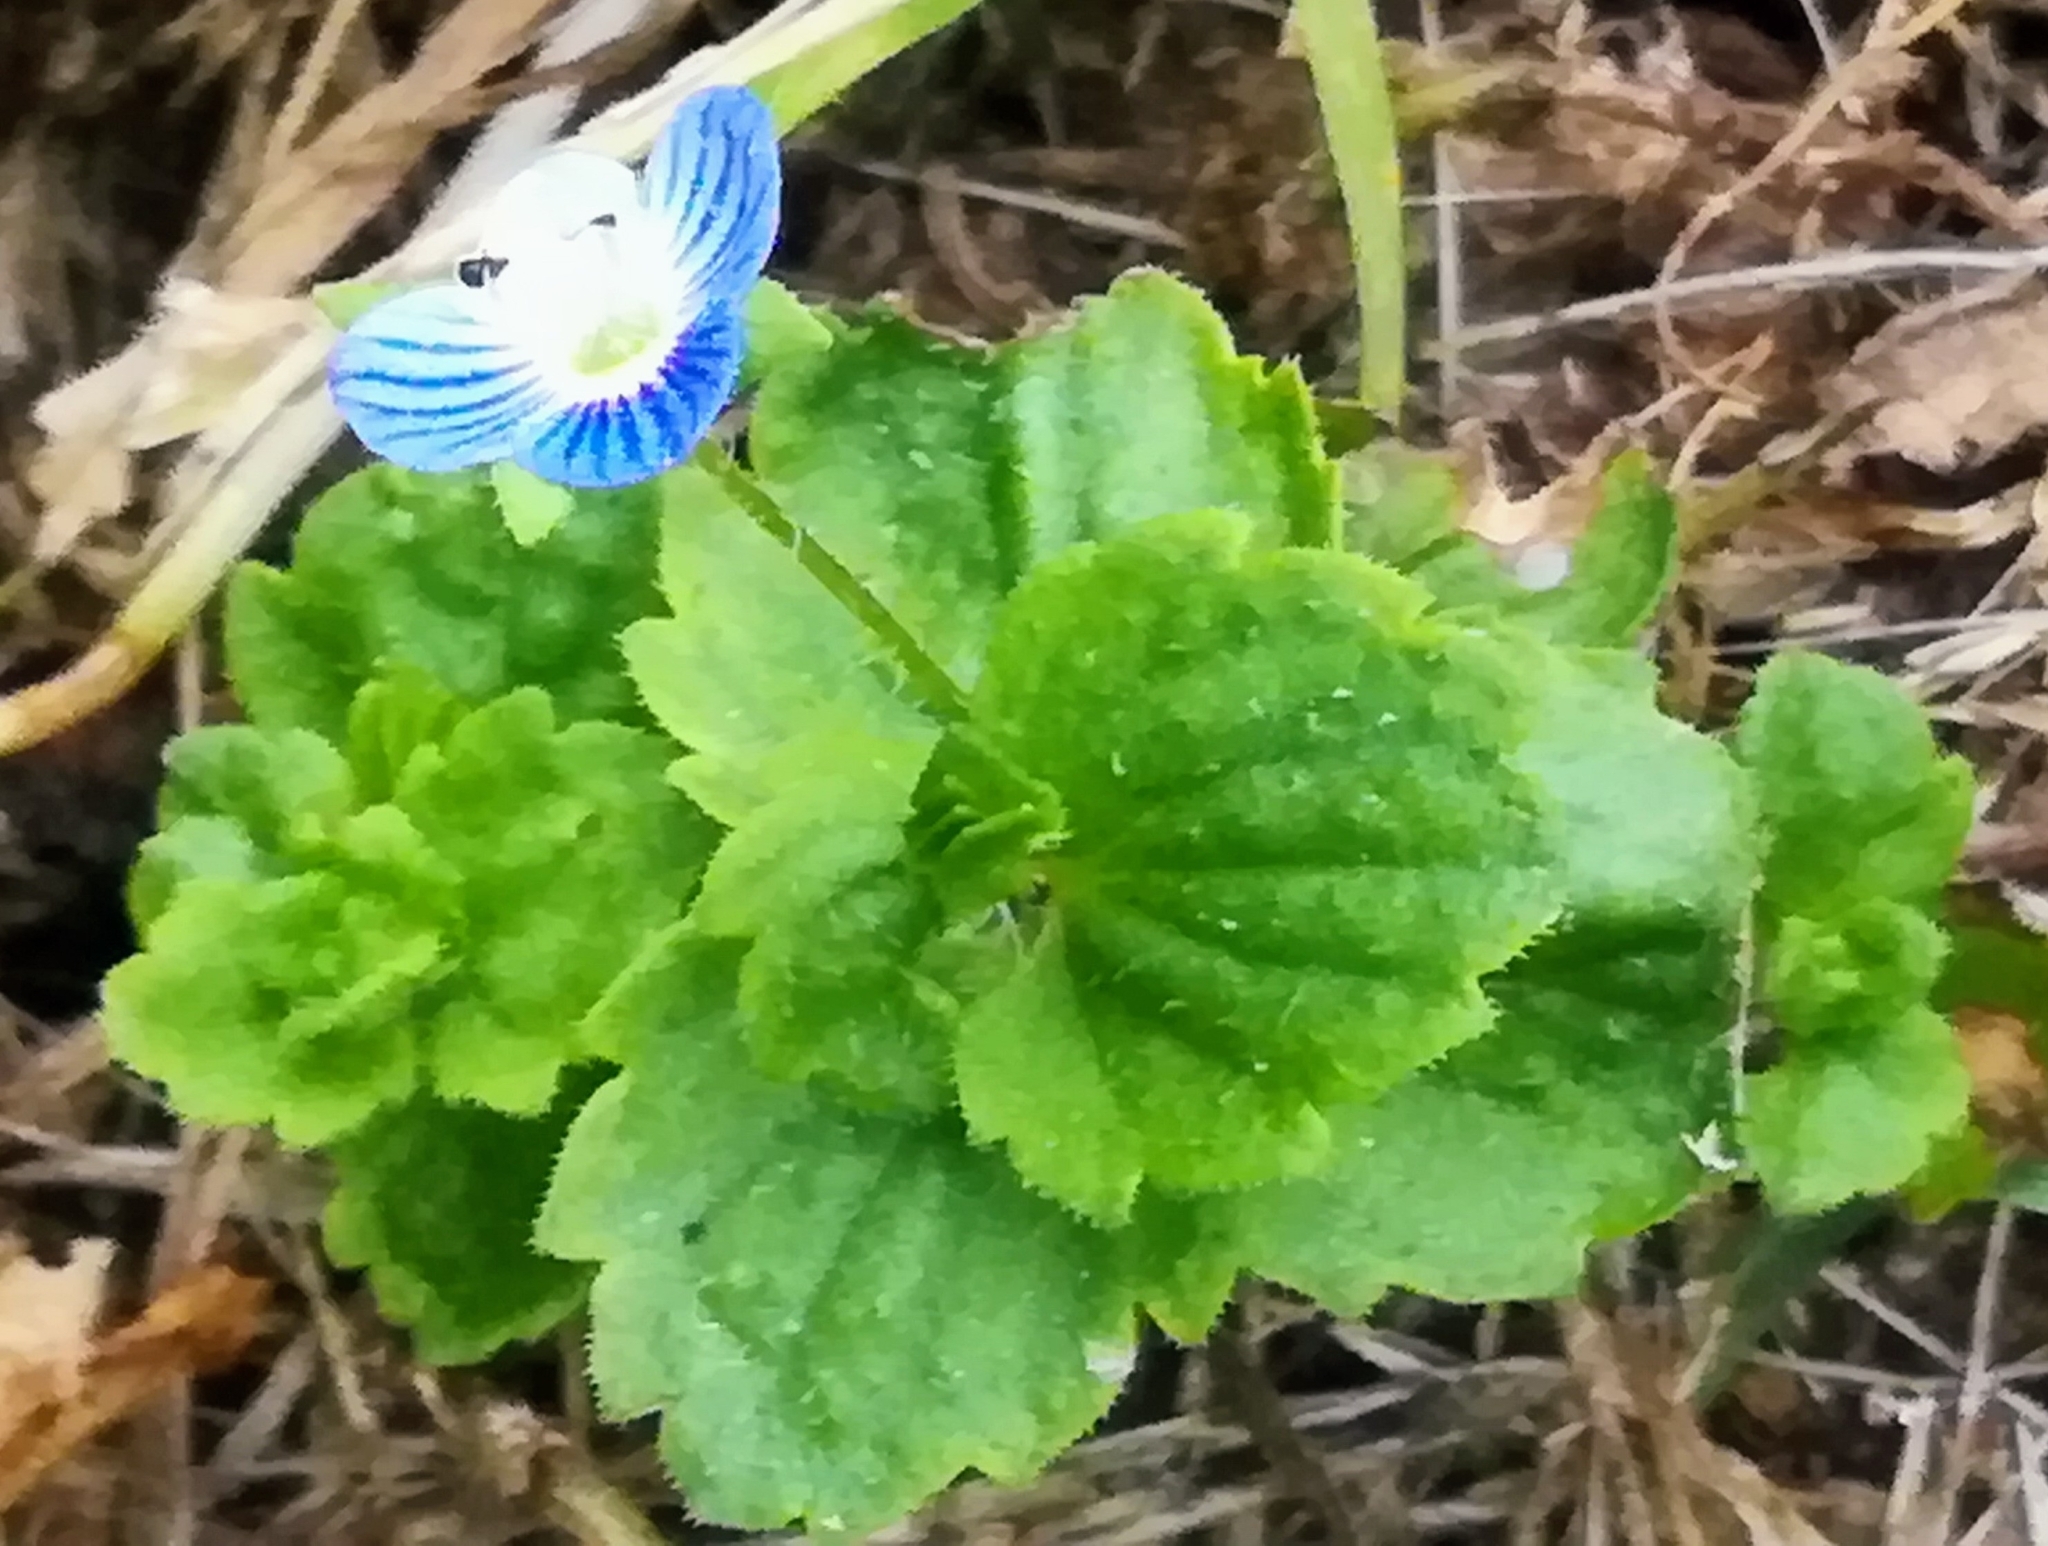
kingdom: Plantae
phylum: Tracheophyta
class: Magnoliopsida
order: Lamiales
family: Plantaginaceae
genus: Veronica
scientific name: Veronica persica
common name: Common field-speedwell
